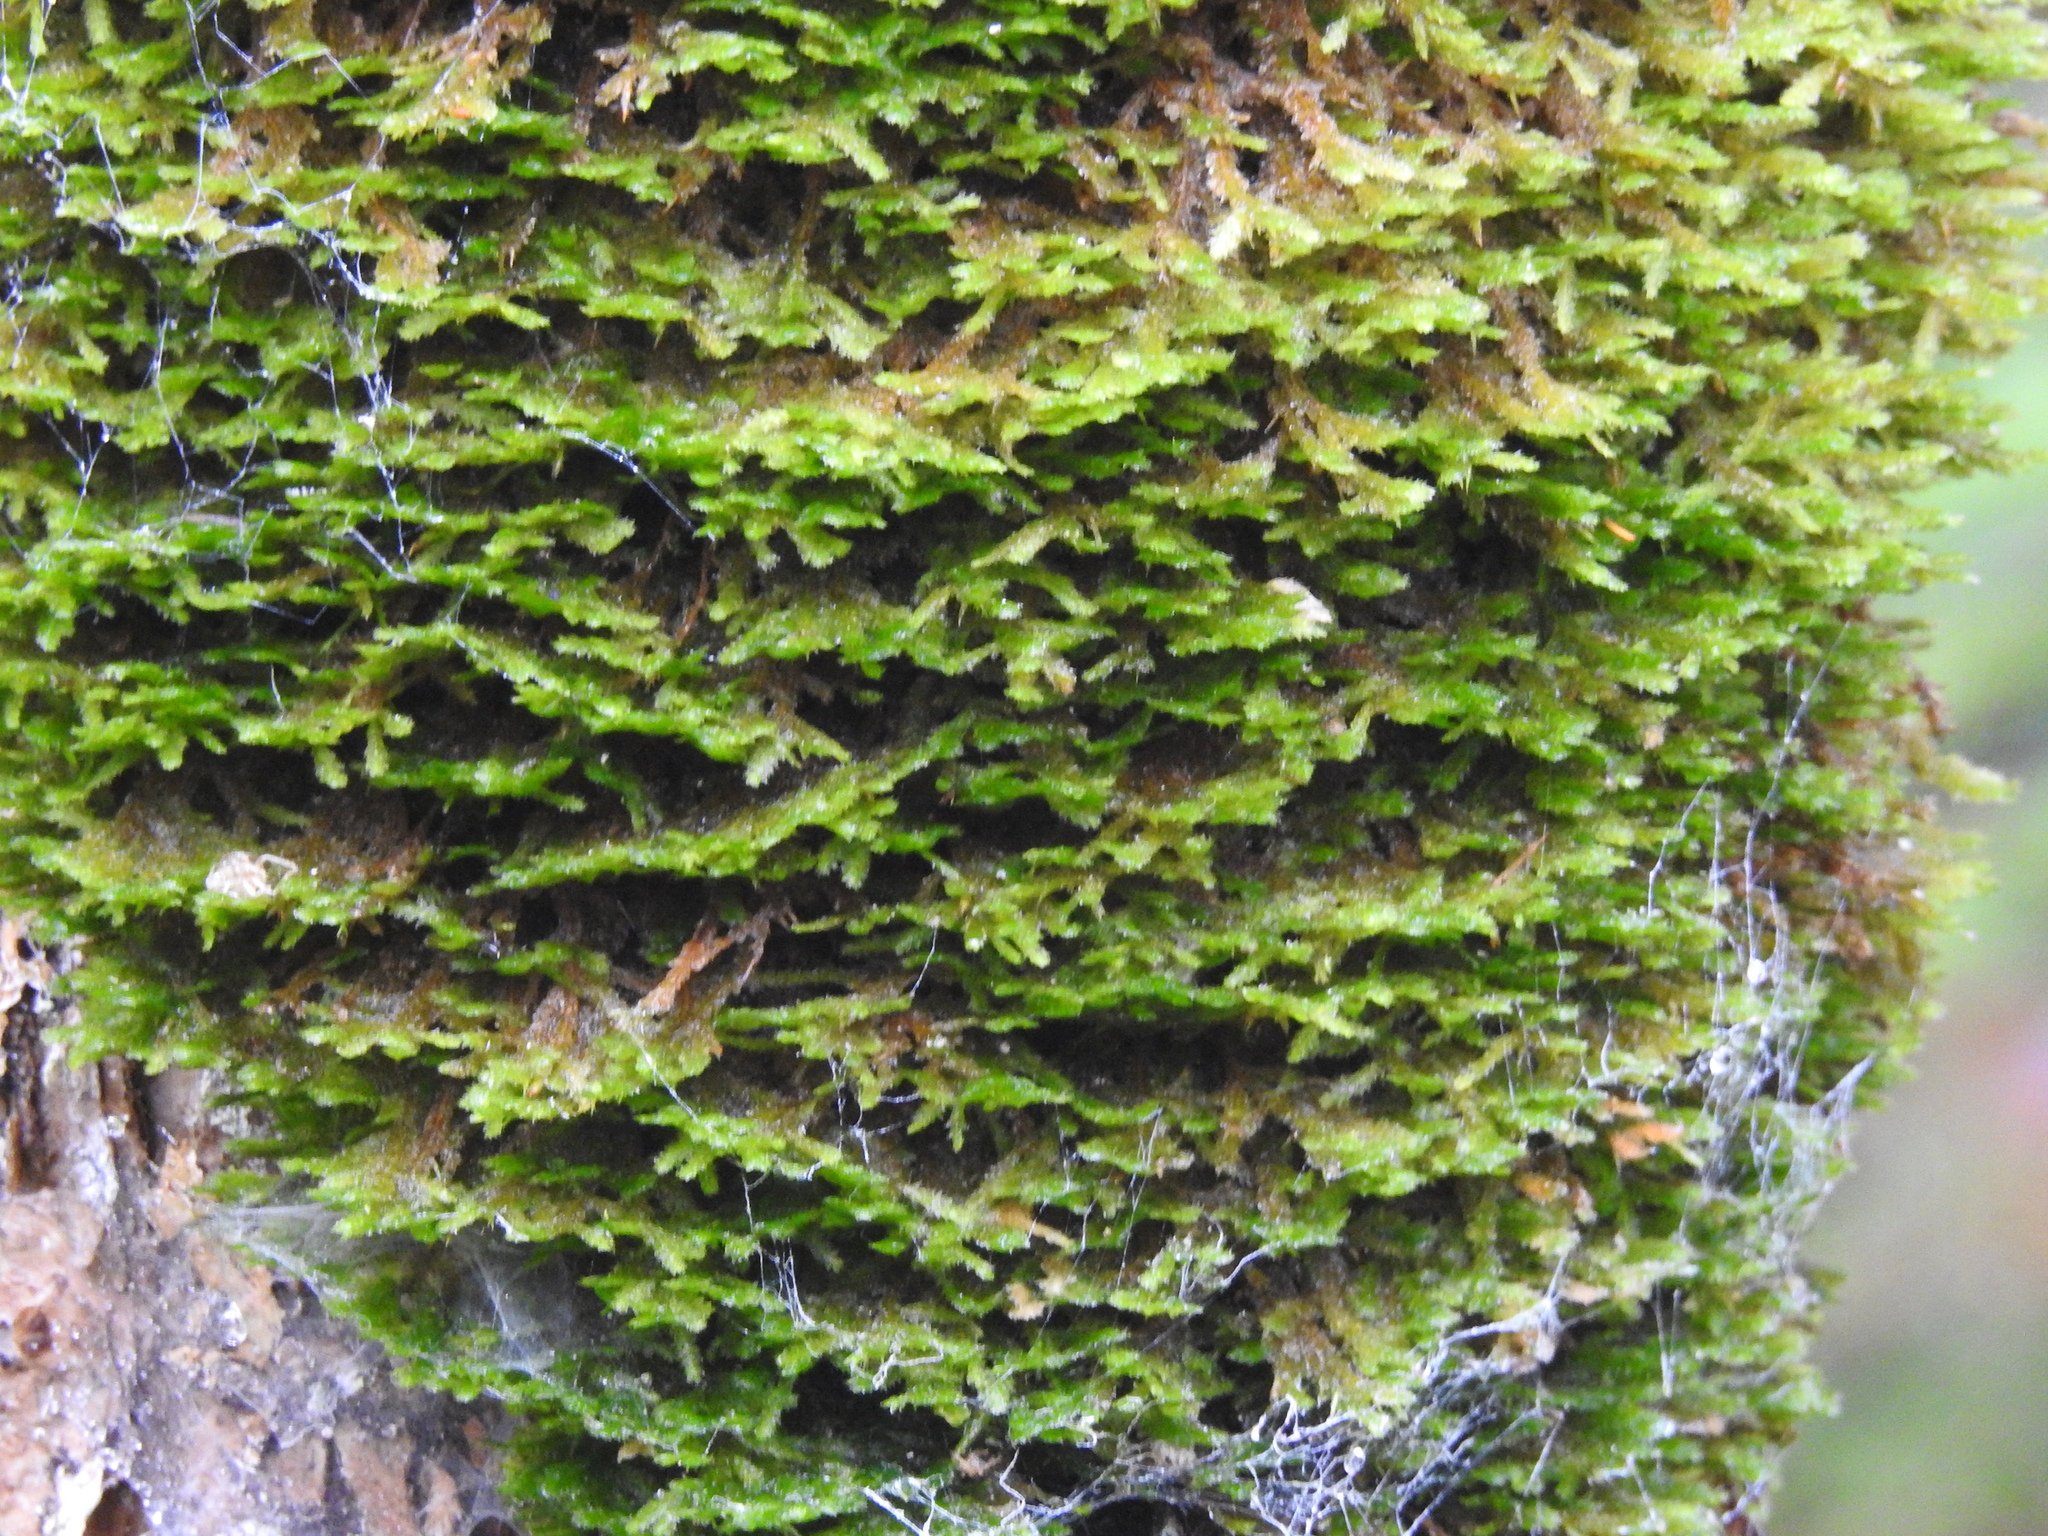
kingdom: Plantae
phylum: Bryophyta
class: Bryopsida
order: Hypnales
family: Neckeraceae
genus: Neckera
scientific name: Neckera pennata
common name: Feathery neckera
